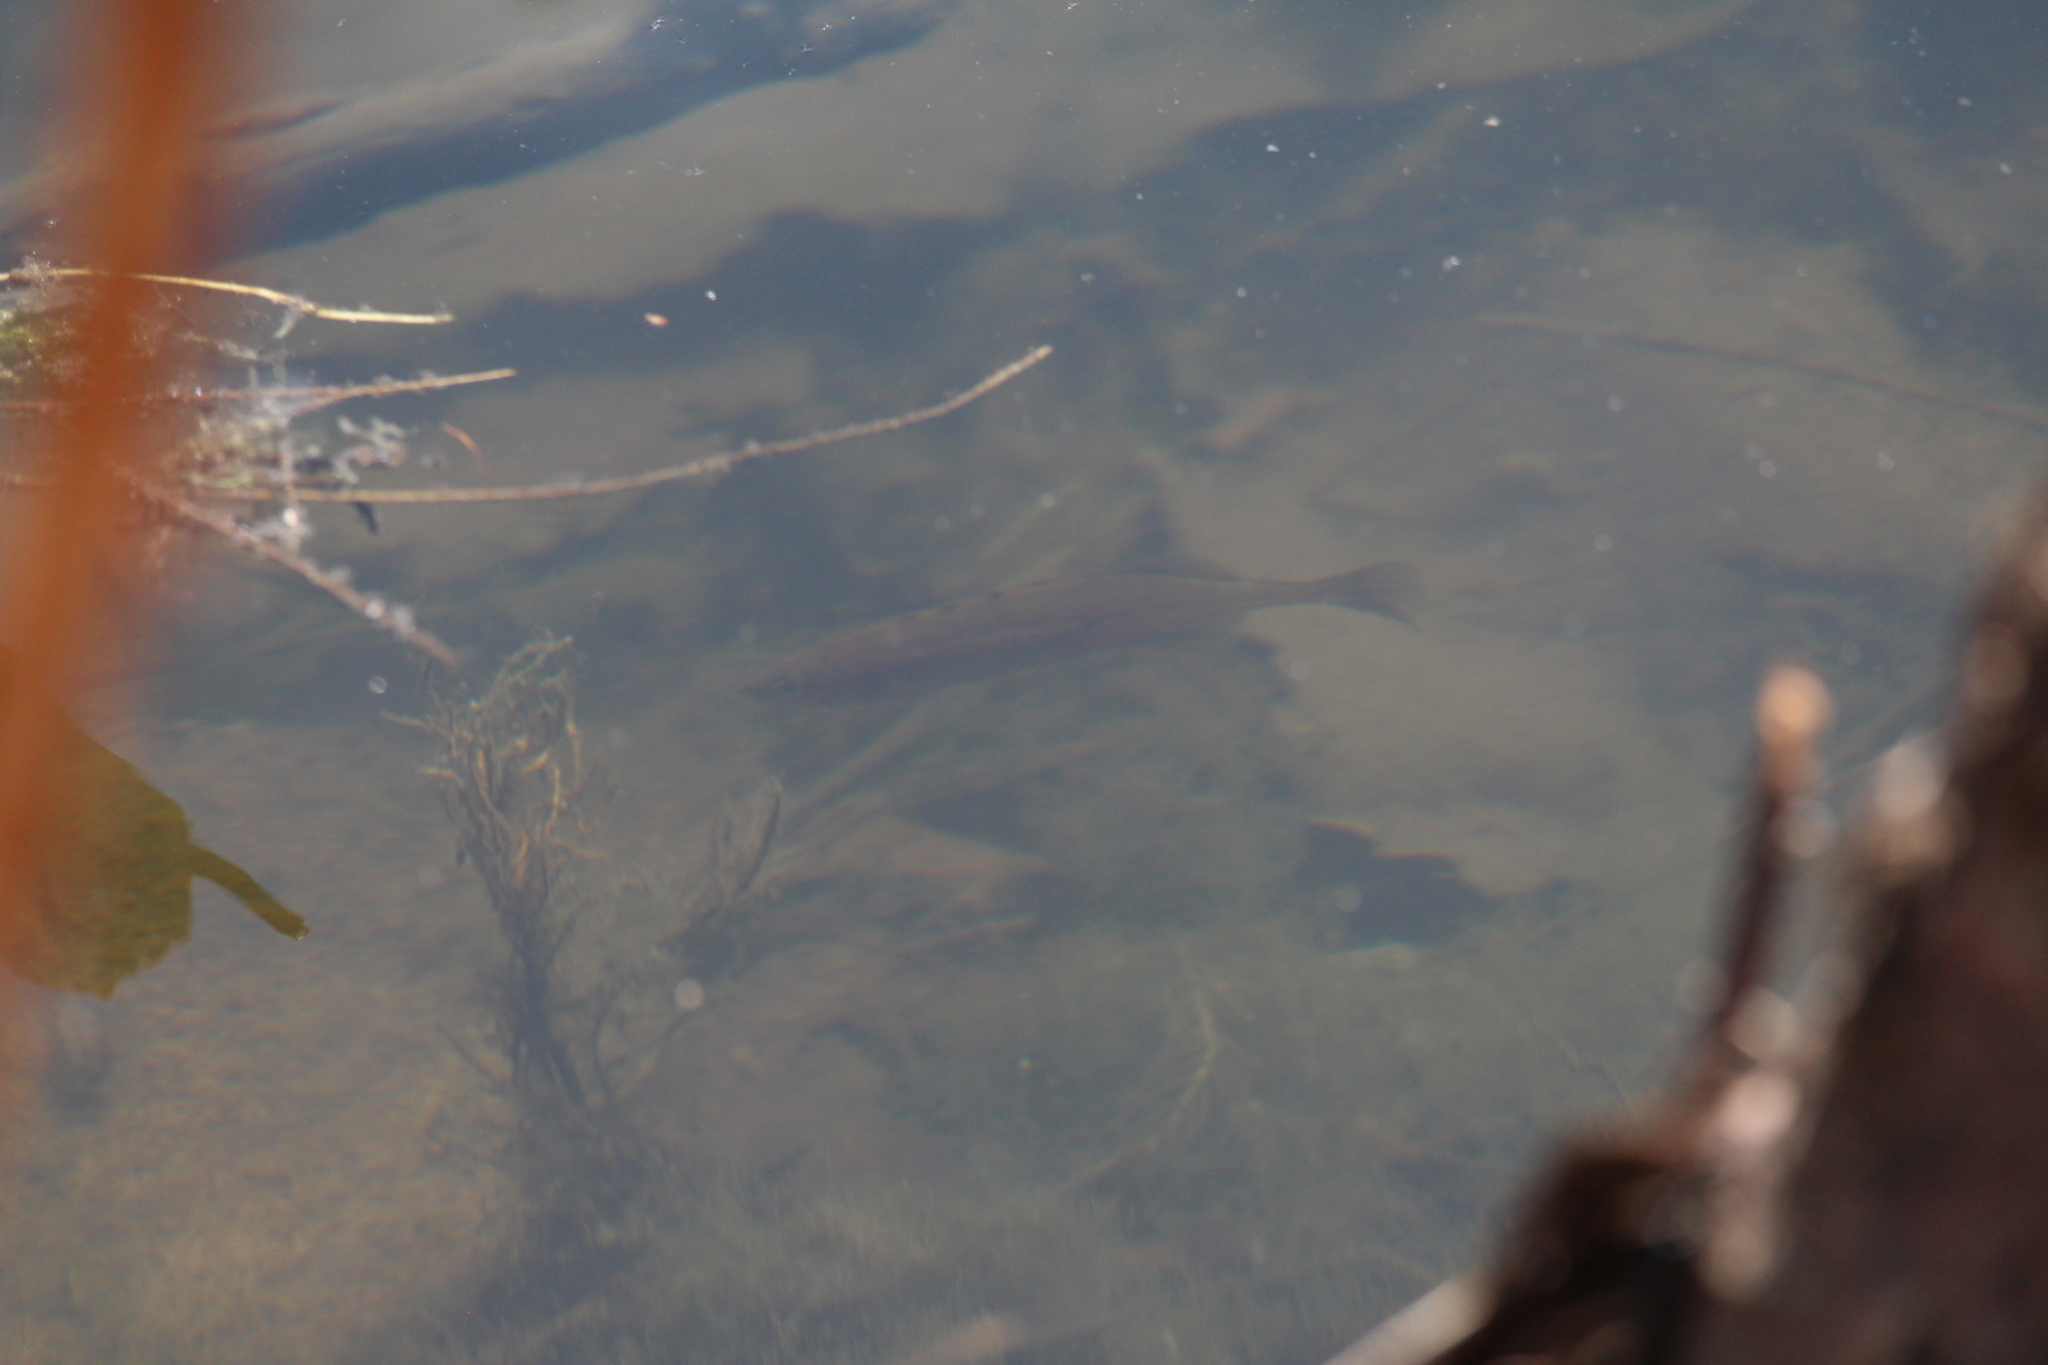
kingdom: Animalia
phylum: Chordata
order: Gasterosteiformes
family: Gasterosteidae
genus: Culaea
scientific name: Culaea inconstans
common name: Brook stickleback
